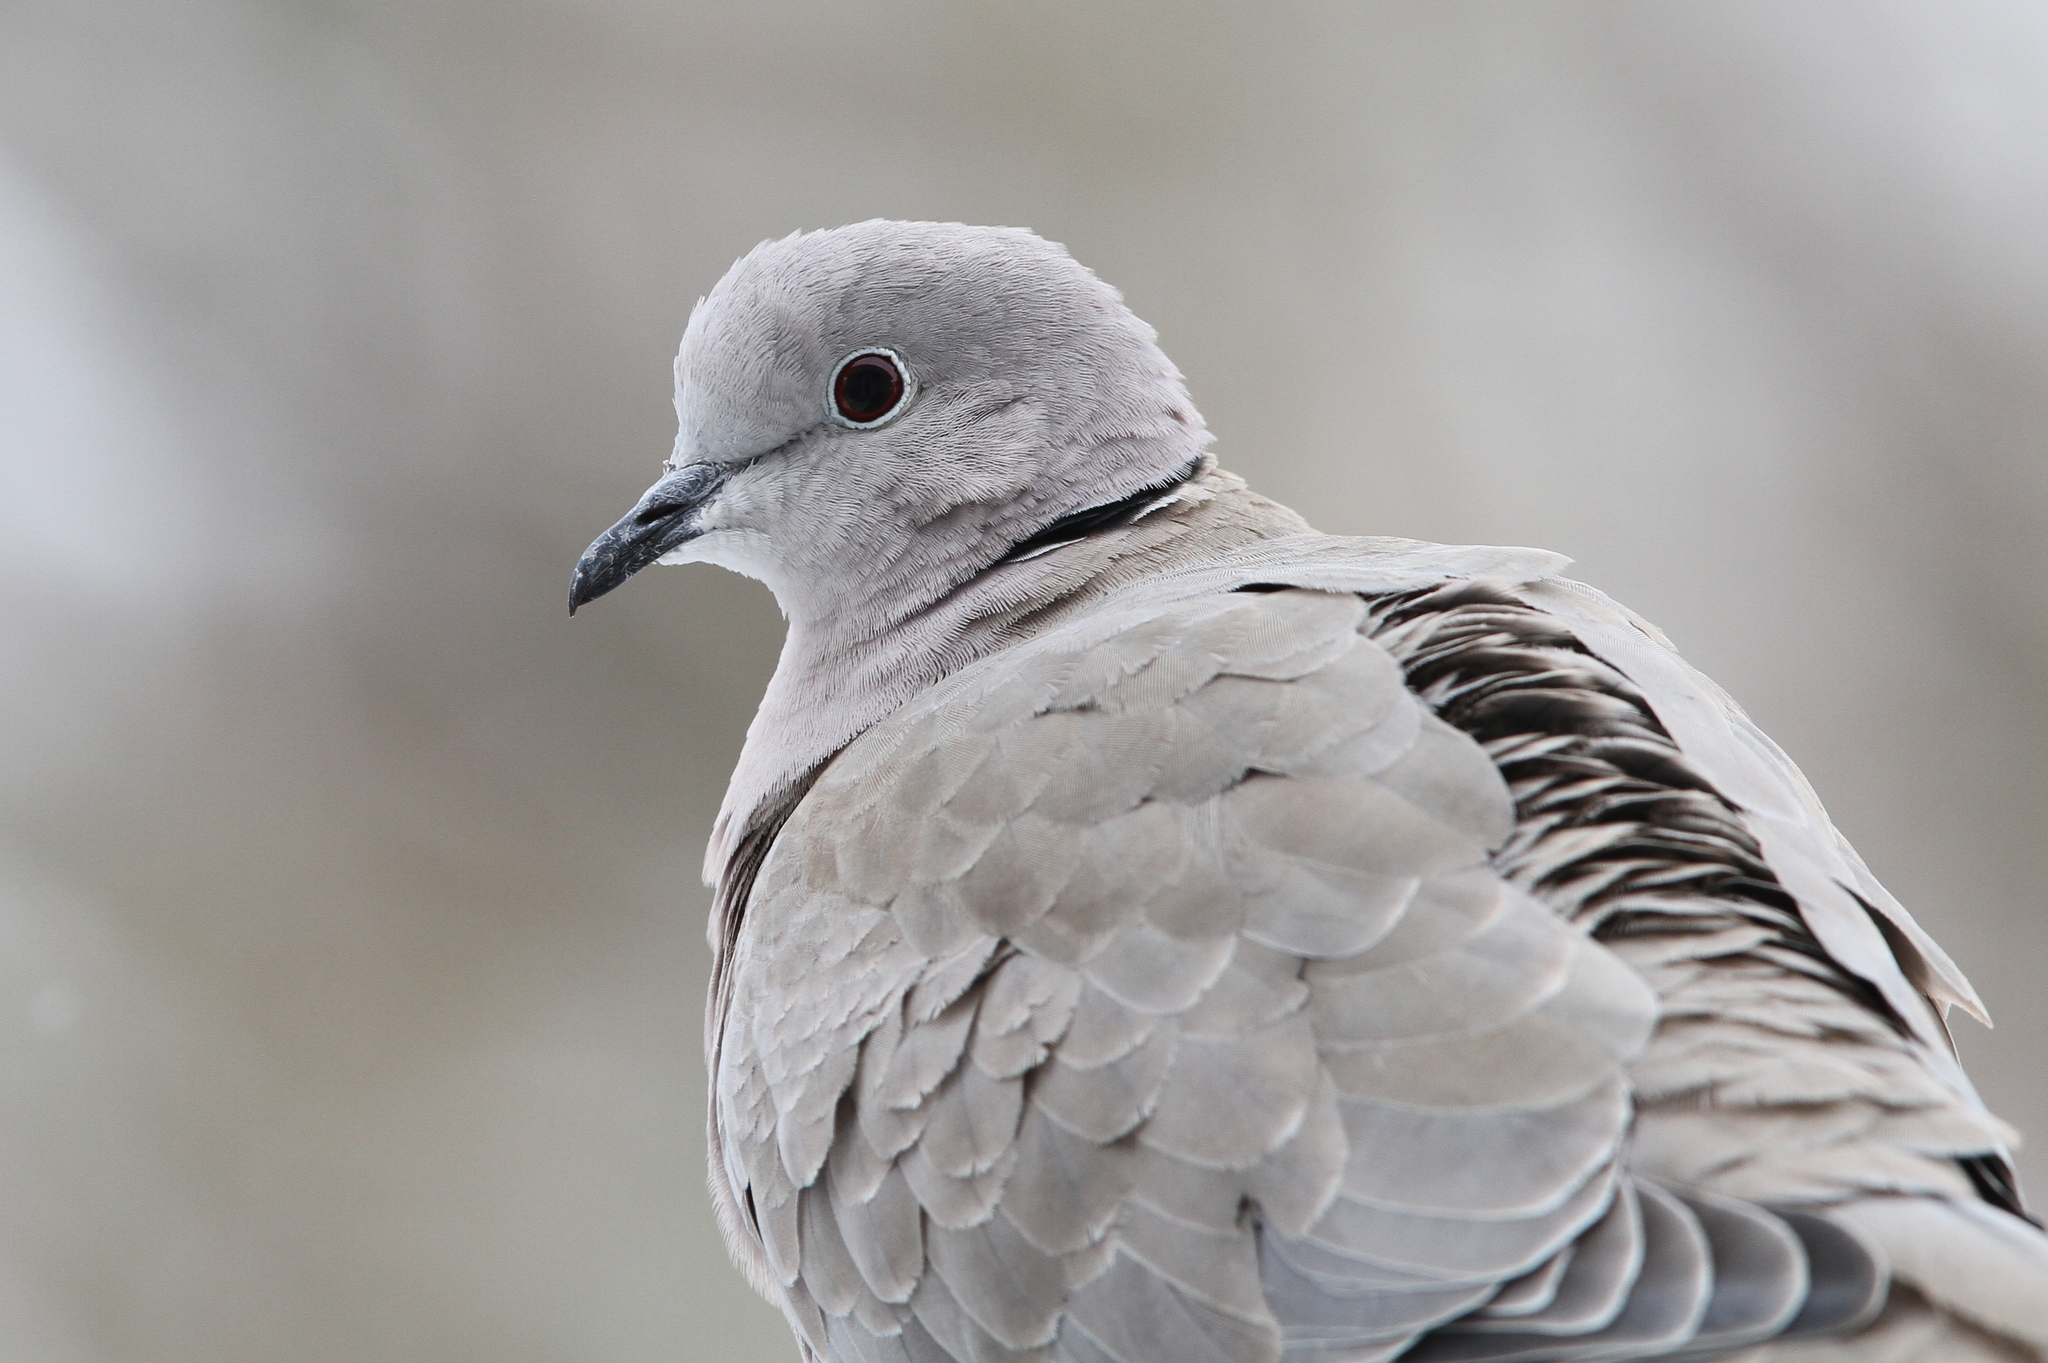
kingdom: Animalia
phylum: Chordata
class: Aves
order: Columbiformes
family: Columbidae
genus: Streptopelia
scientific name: Streptopelia decaocto
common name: Eurasian collared dove
